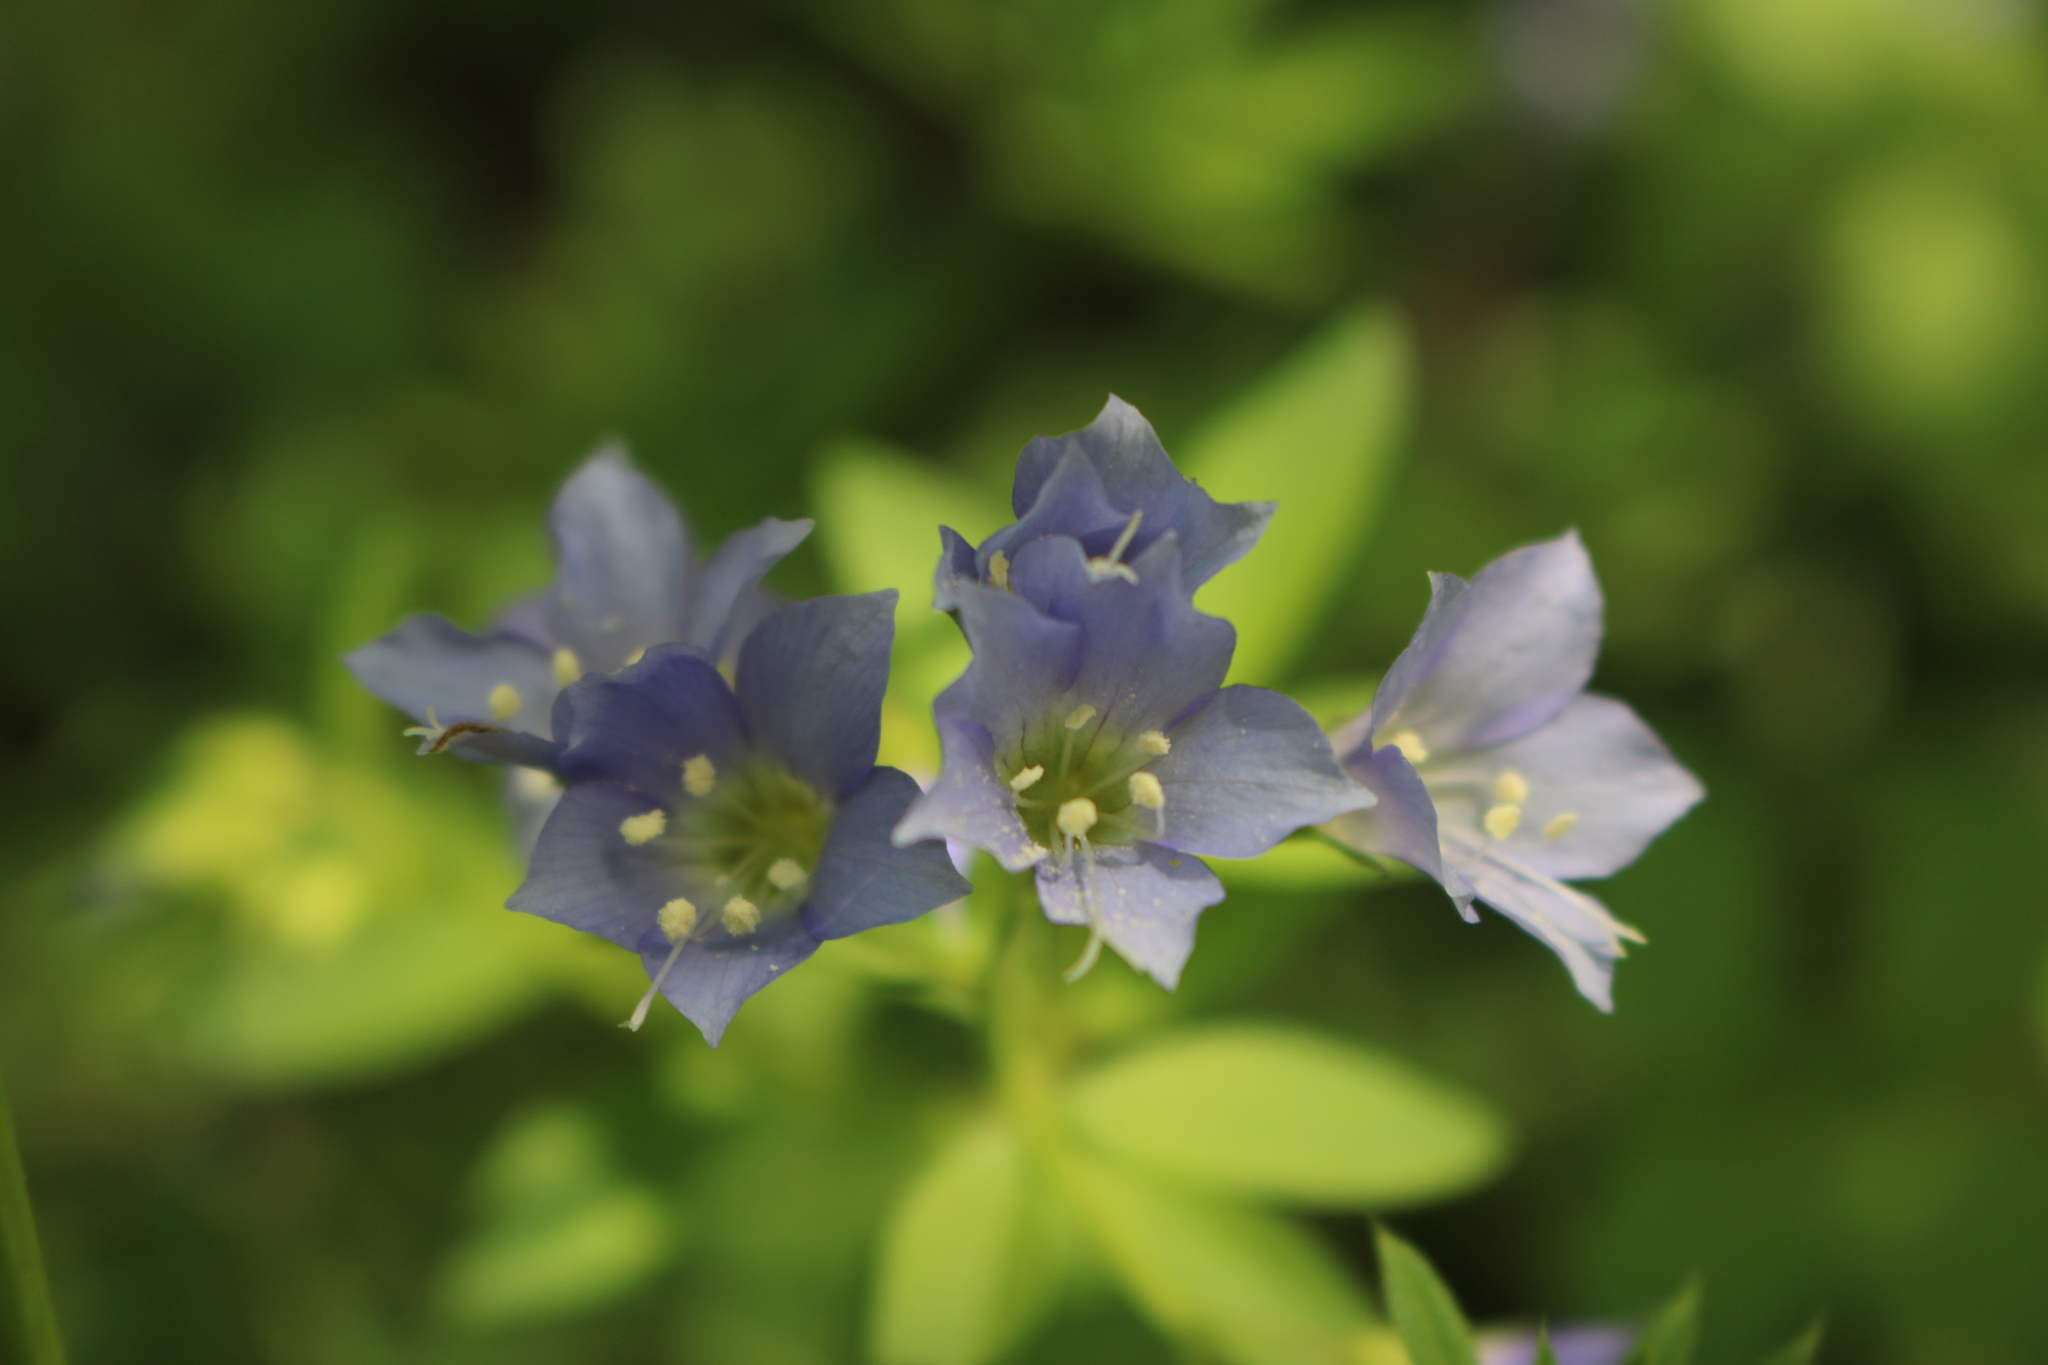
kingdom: Plantae
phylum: Tracheophyta
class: Magnoliopsida
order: Ericales
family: Polemoniaceae
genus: Polemonium
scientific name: Polemonium reptans
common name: Creeping jacob's-ladder
